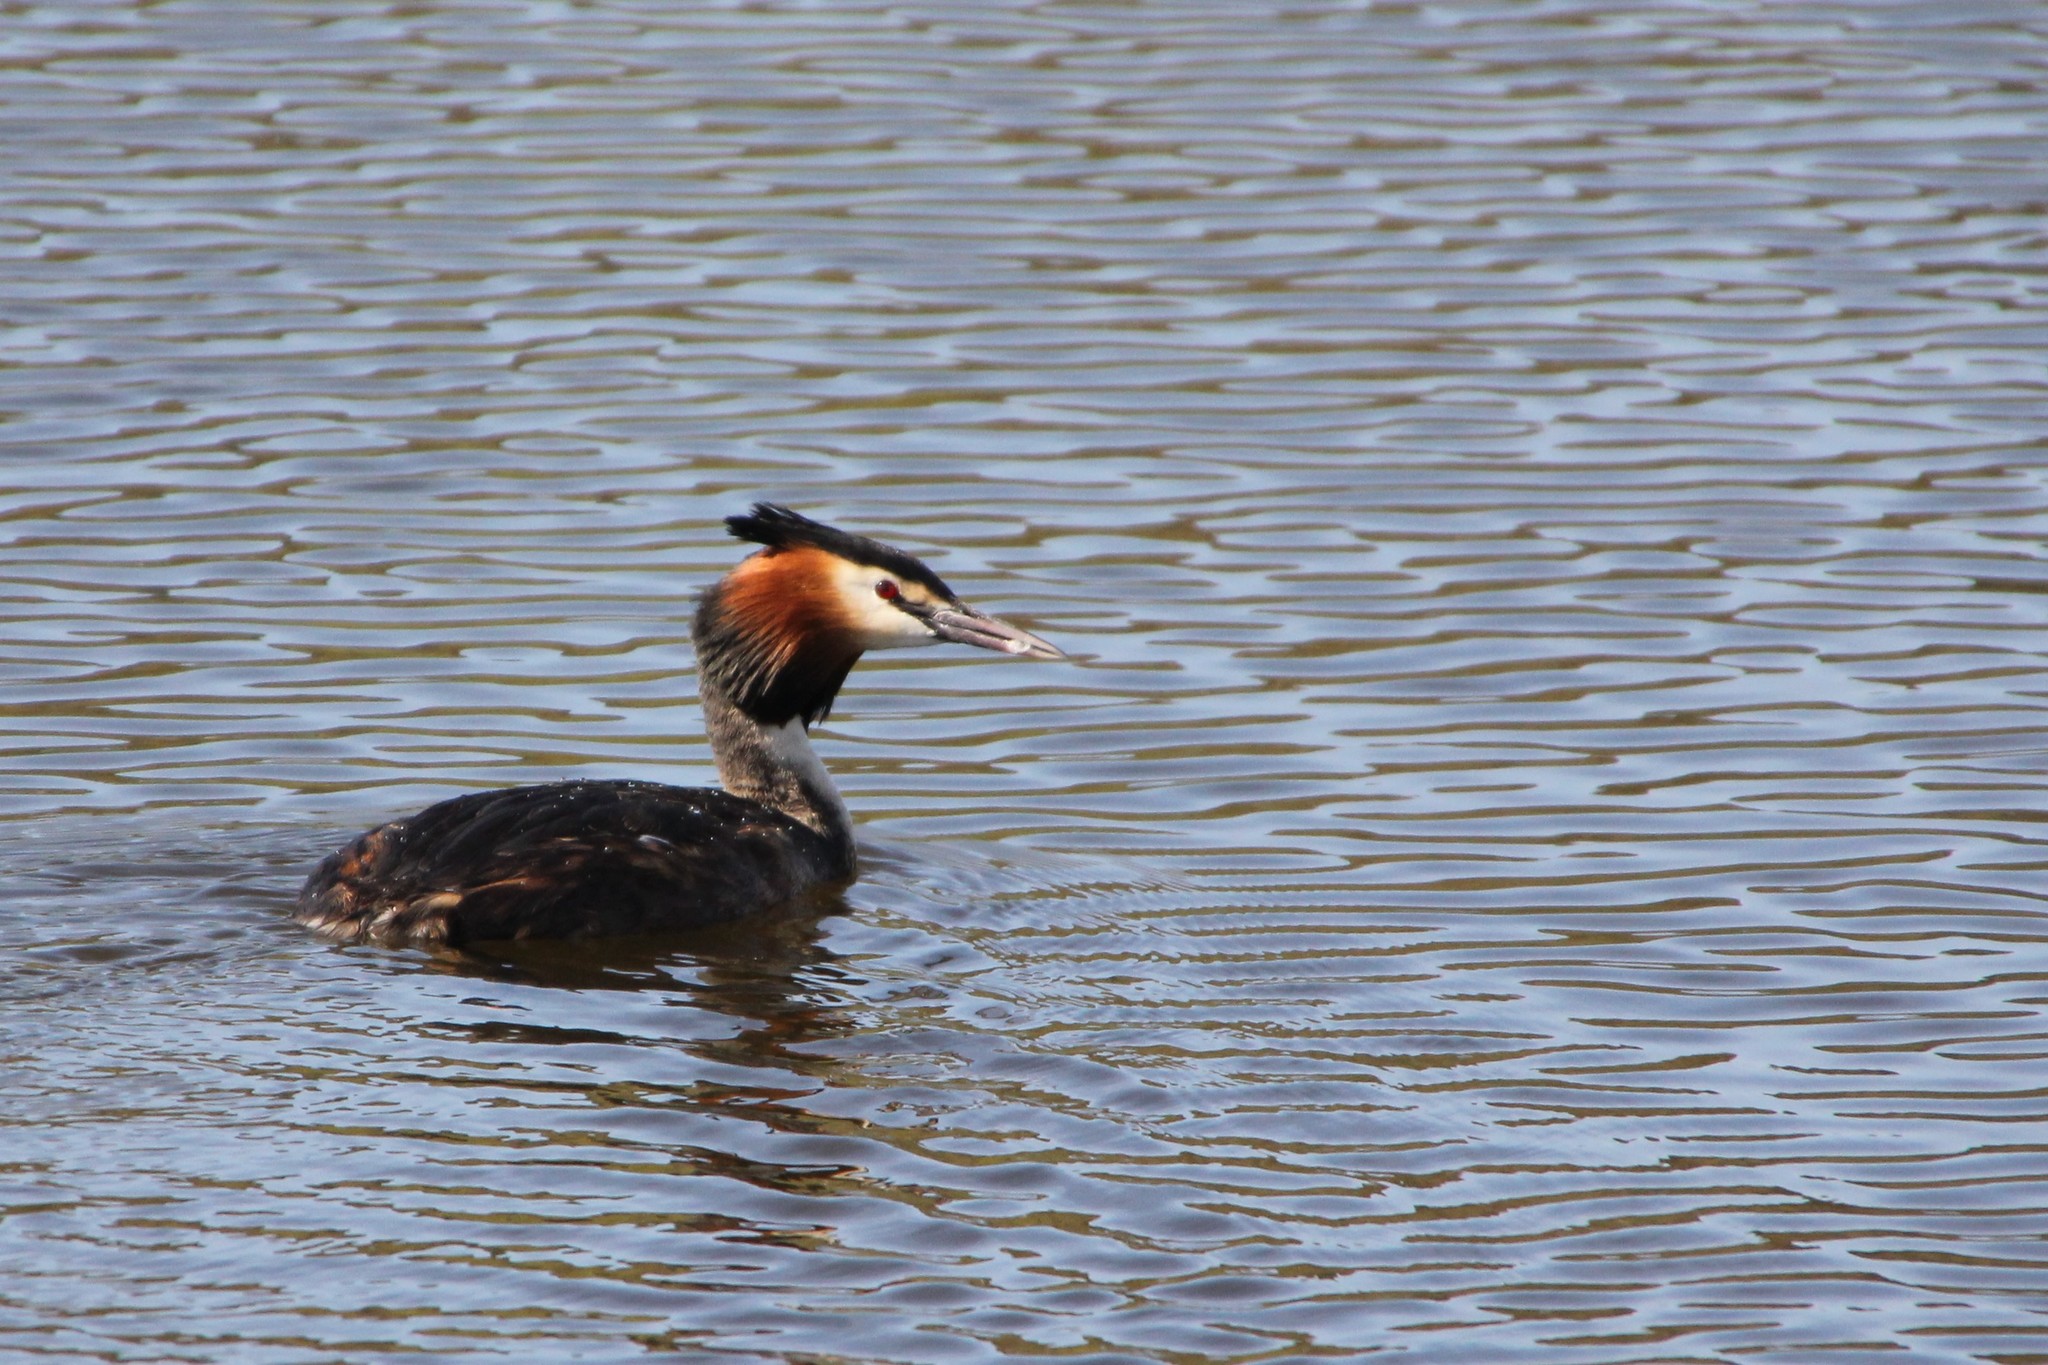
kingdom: Animalia
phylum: Chordata
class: Aves
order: Podicipediformes
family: Podicipedidae
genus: Podiceps
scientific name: Podiceps cristatus
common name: Great crested grebe
